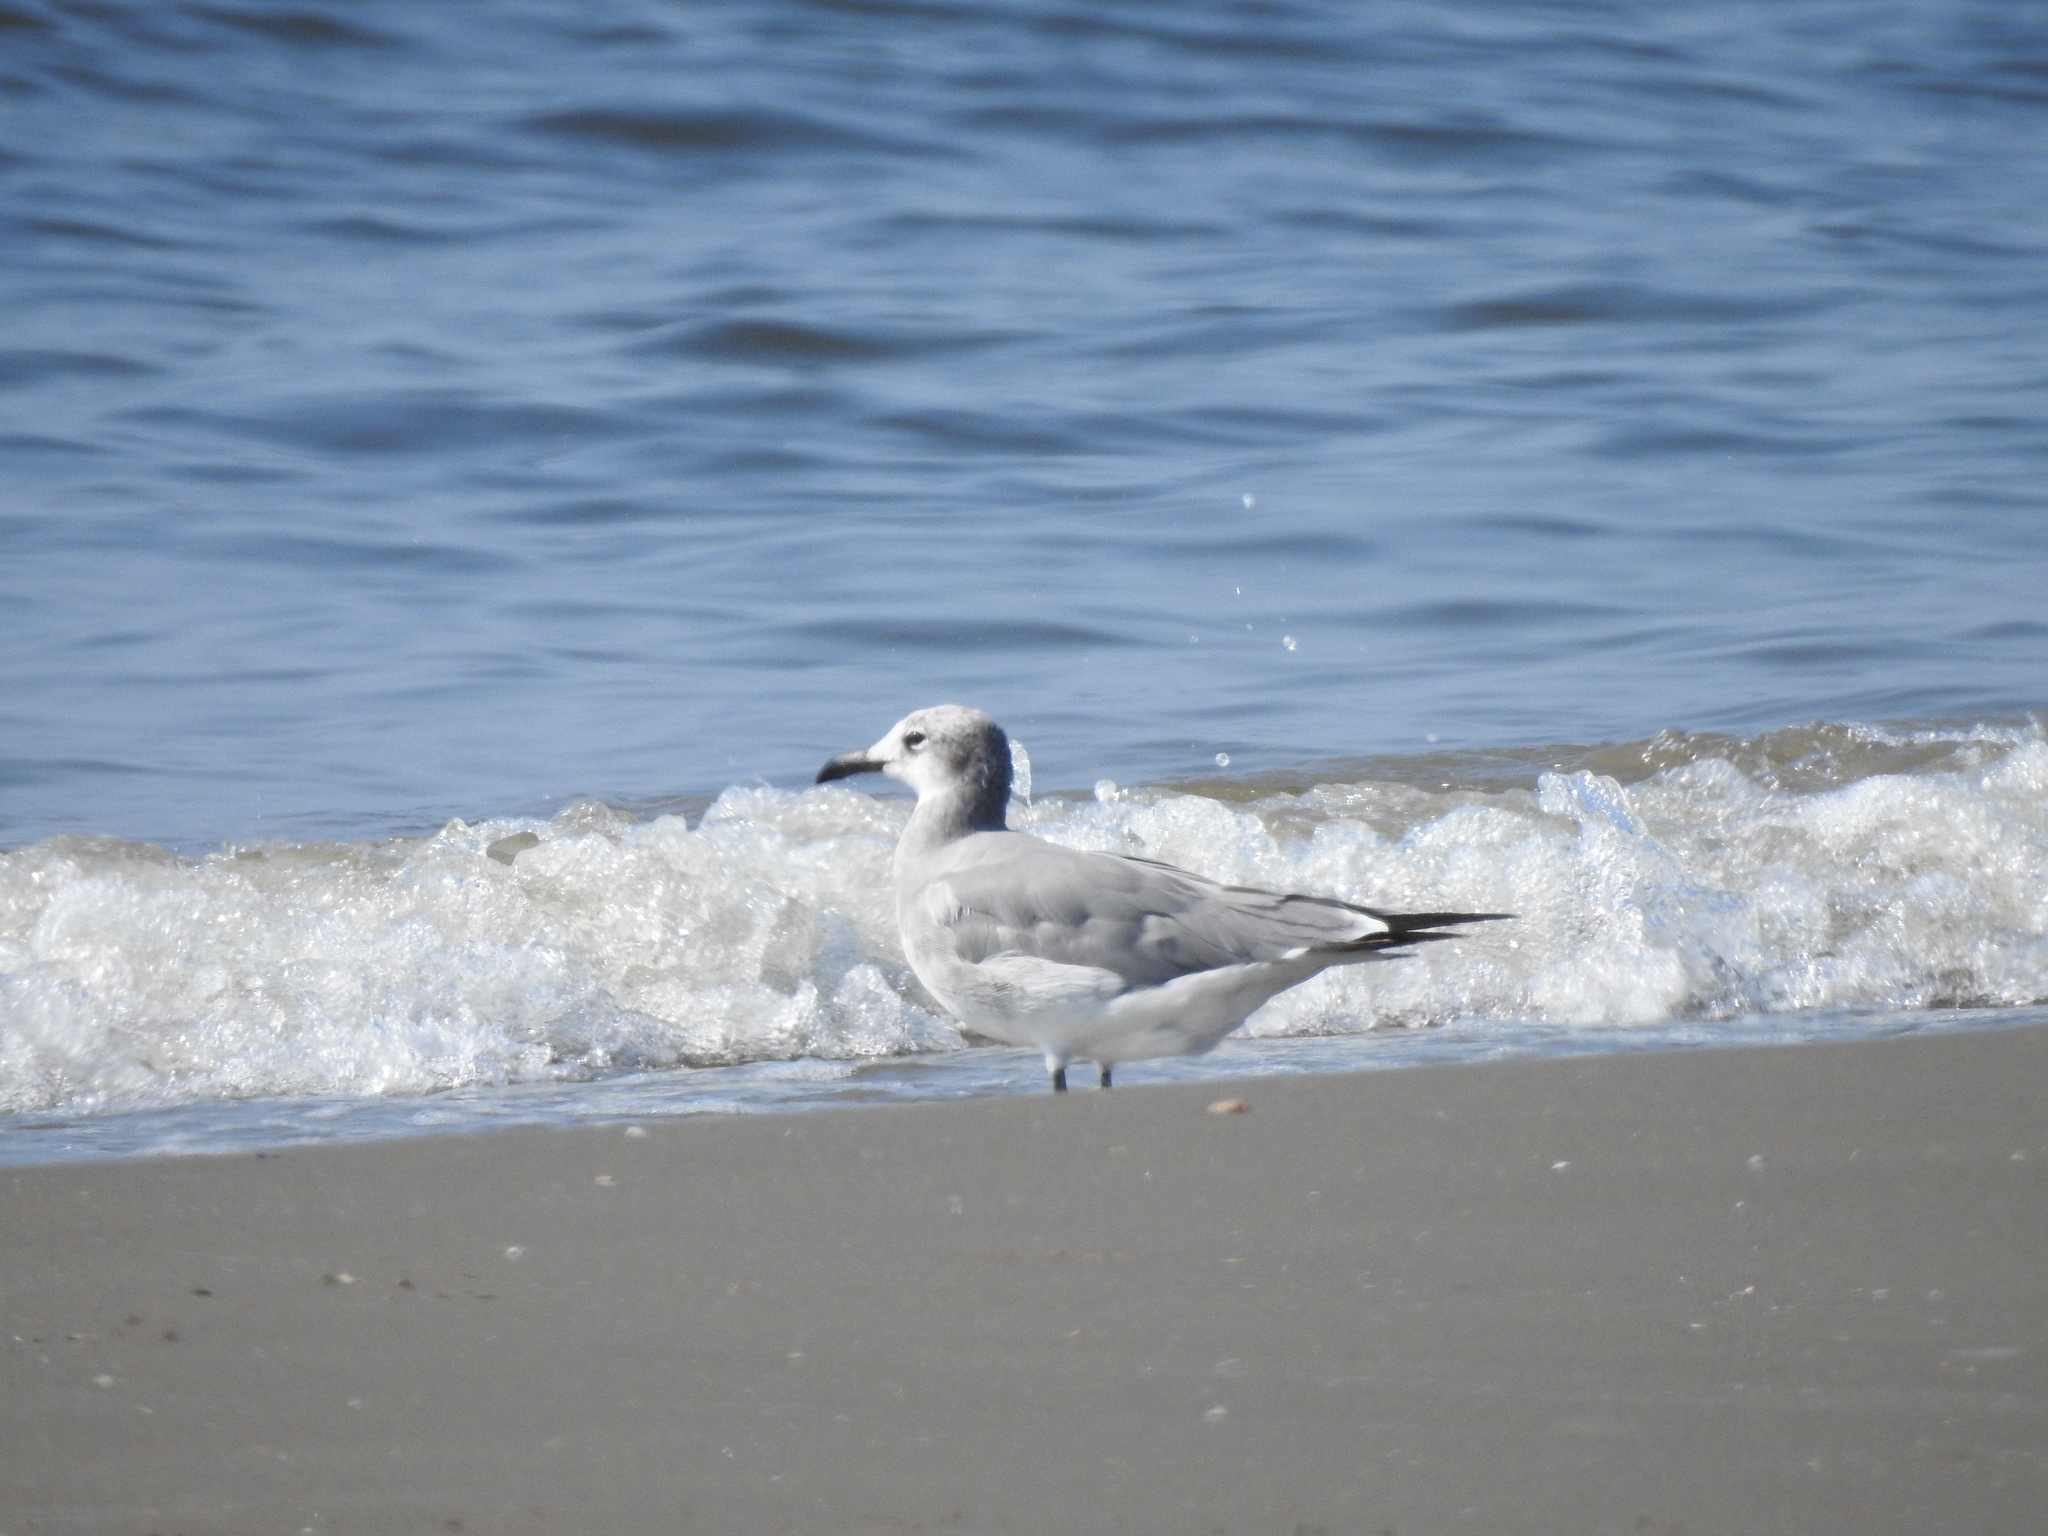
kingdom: Animalia
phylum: Chordata
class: Aves
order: Charadriiformes
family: Laridae
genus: Leucophaeus
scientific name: Leucophaeus atricilla
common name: Laughing gull
